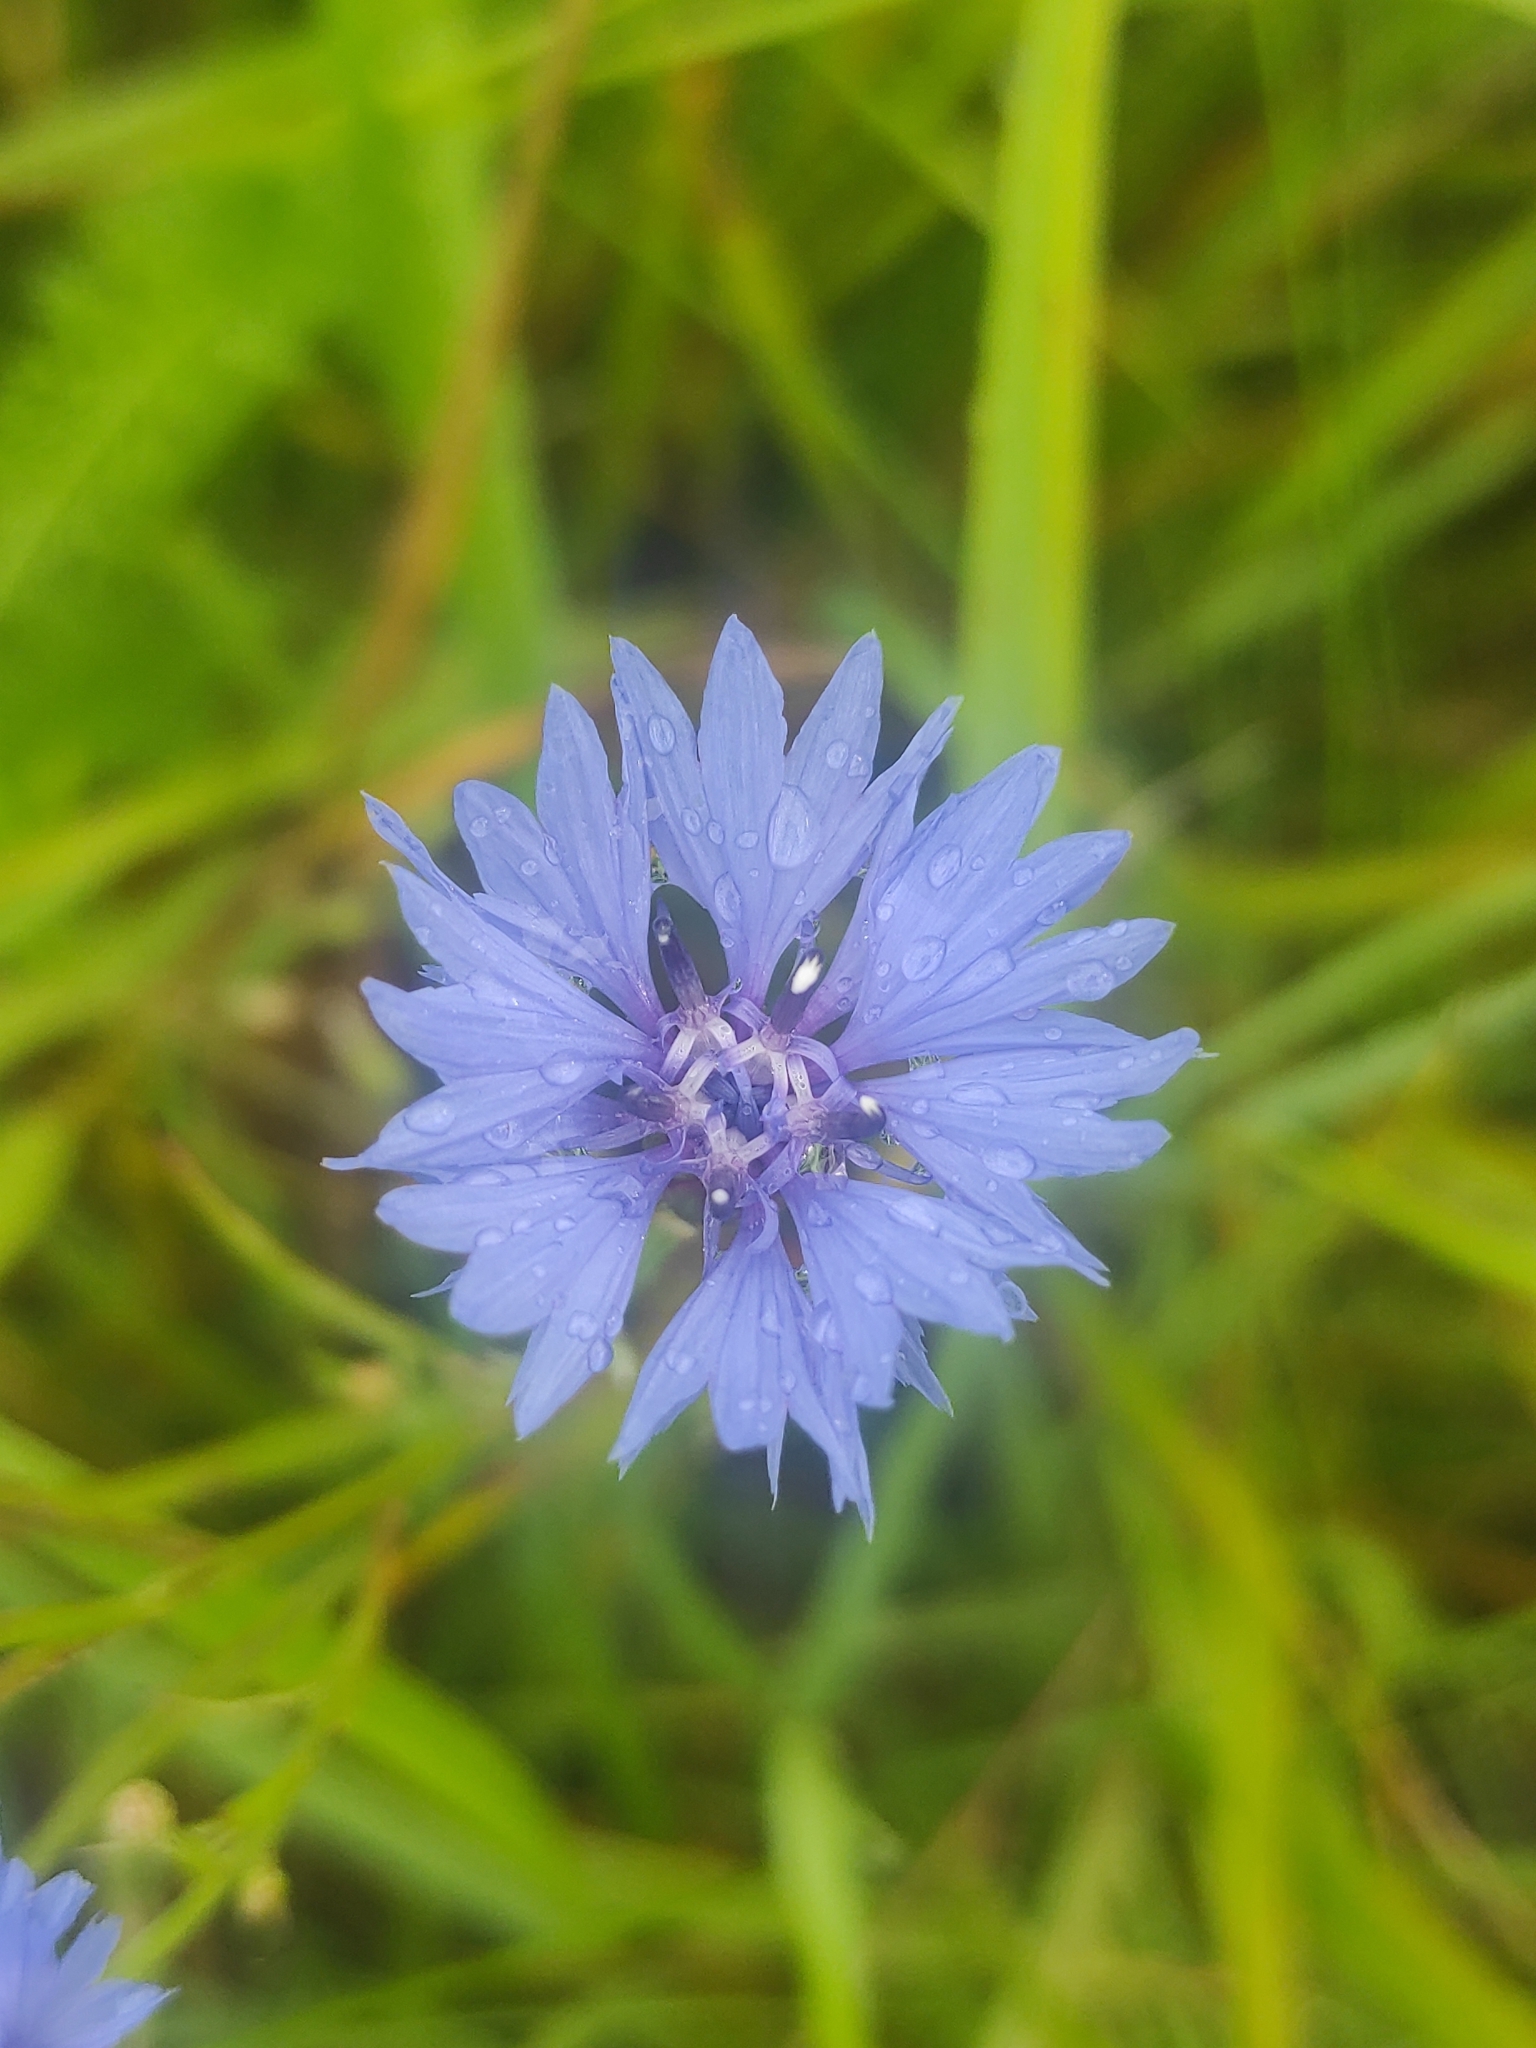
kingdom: Plantae
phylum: Tracheophyta
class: Magnoliopsida
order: Asterales
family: Asteraceae
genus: Centaurea
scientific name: Centaurea cyanus
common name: Cornflower
